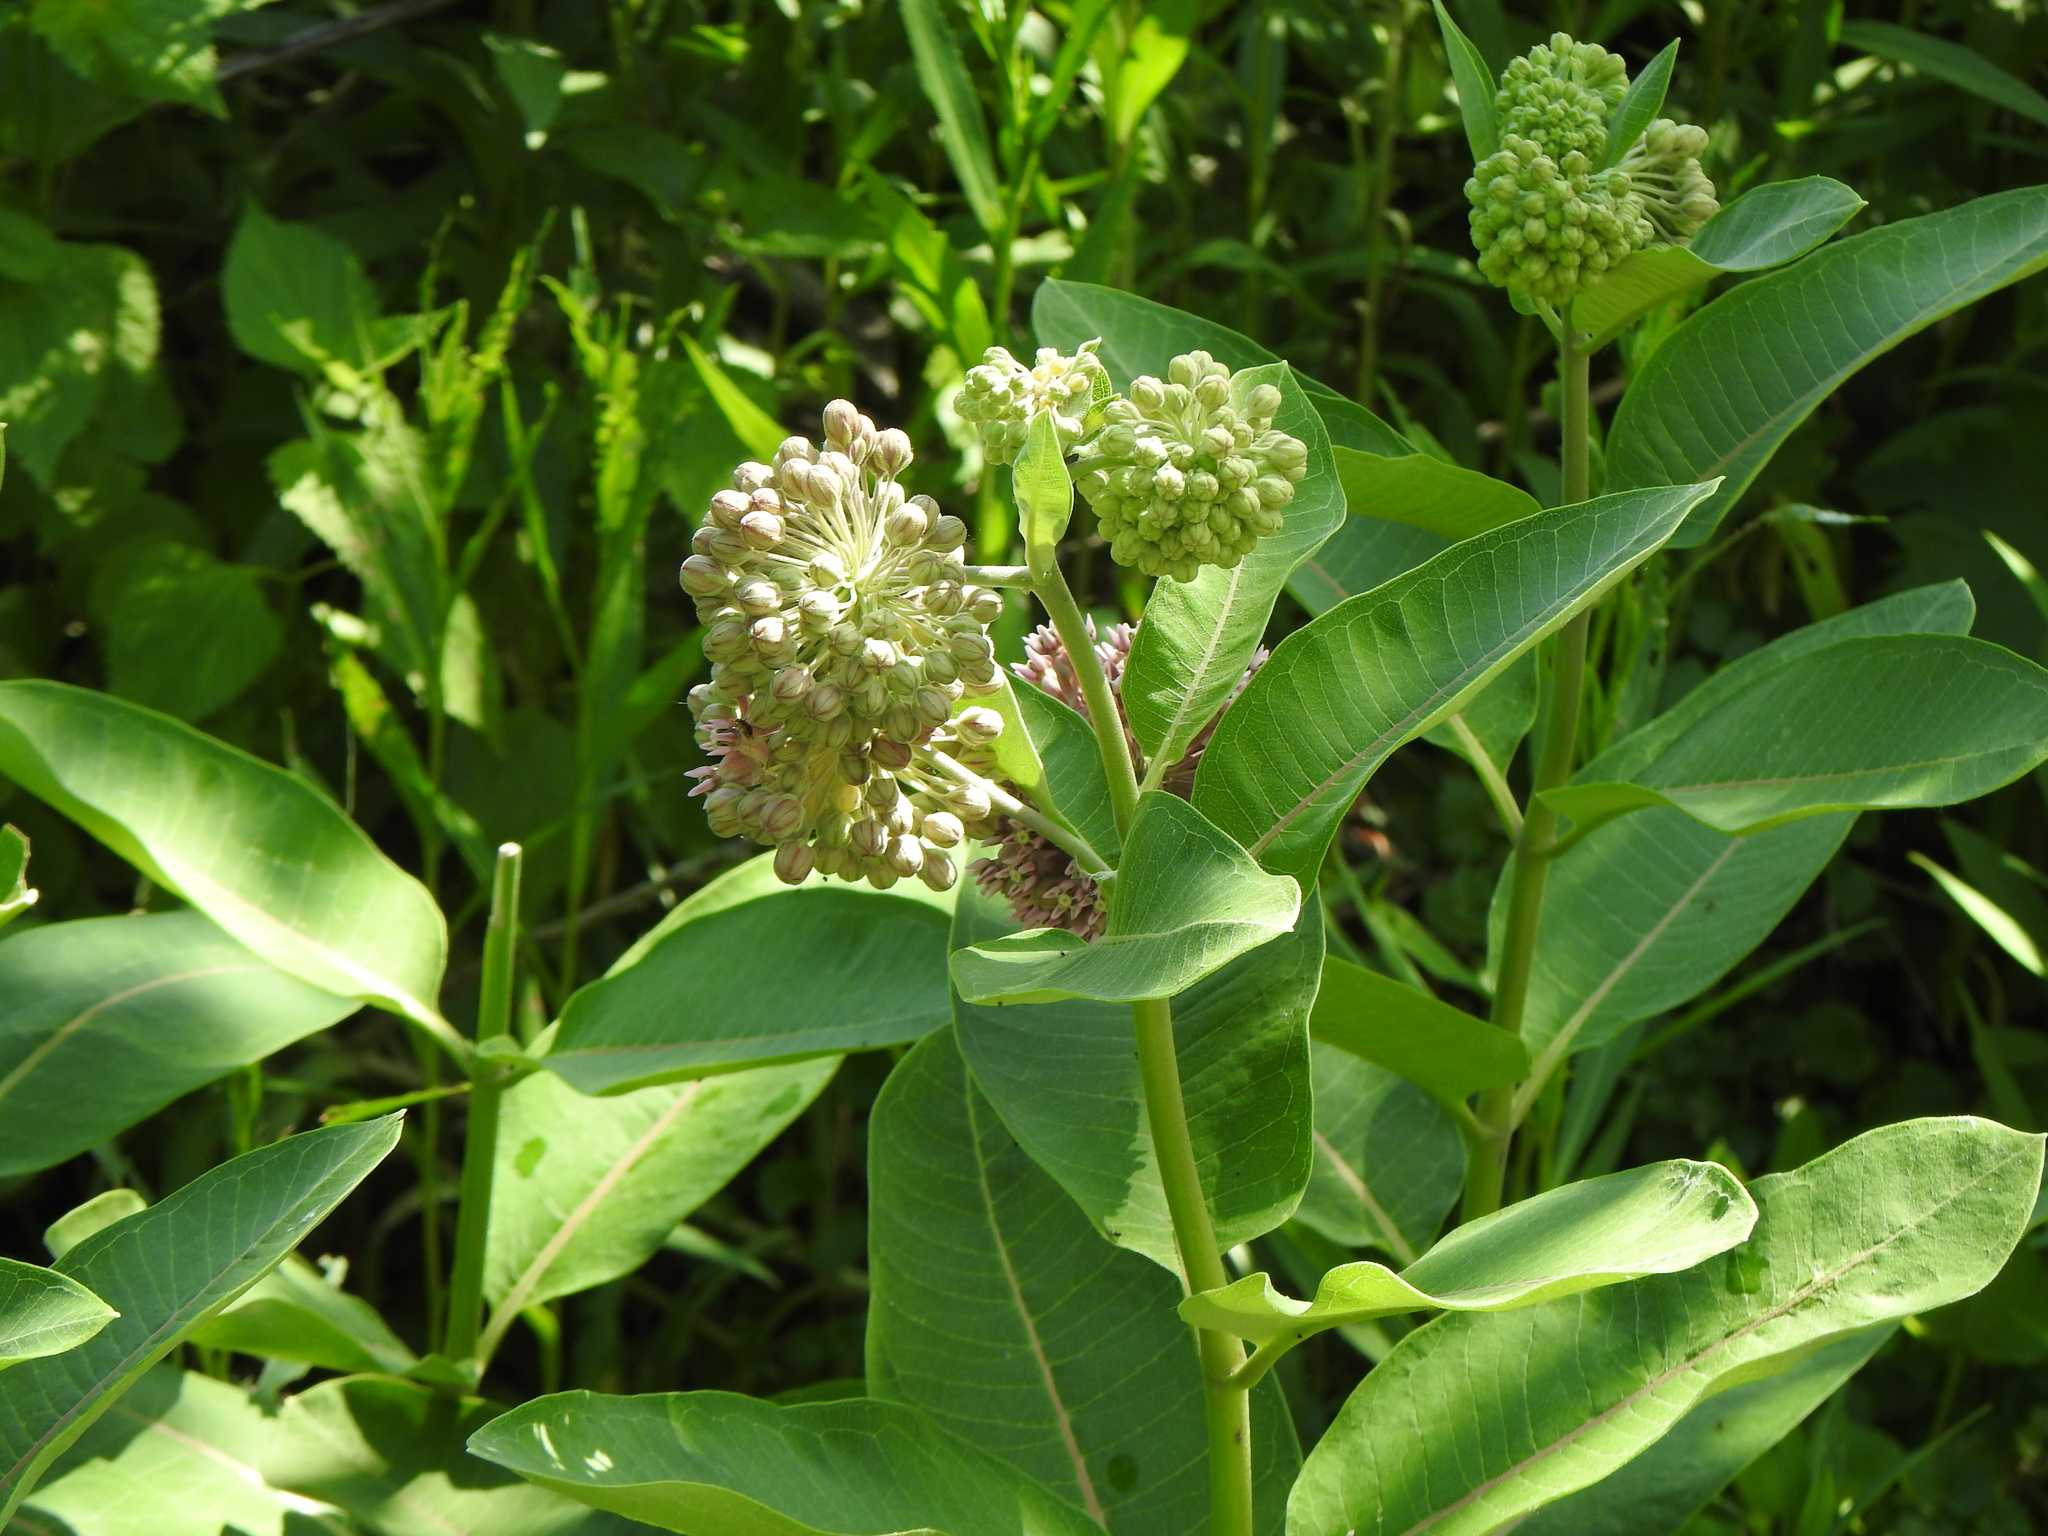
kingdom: Plantae
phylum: Tracheophyta
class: Magnoliopsida
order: Gentianales
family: Apocynaceae
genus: Asclepias
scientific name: Asclepias syriaca
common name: Common milkweed
